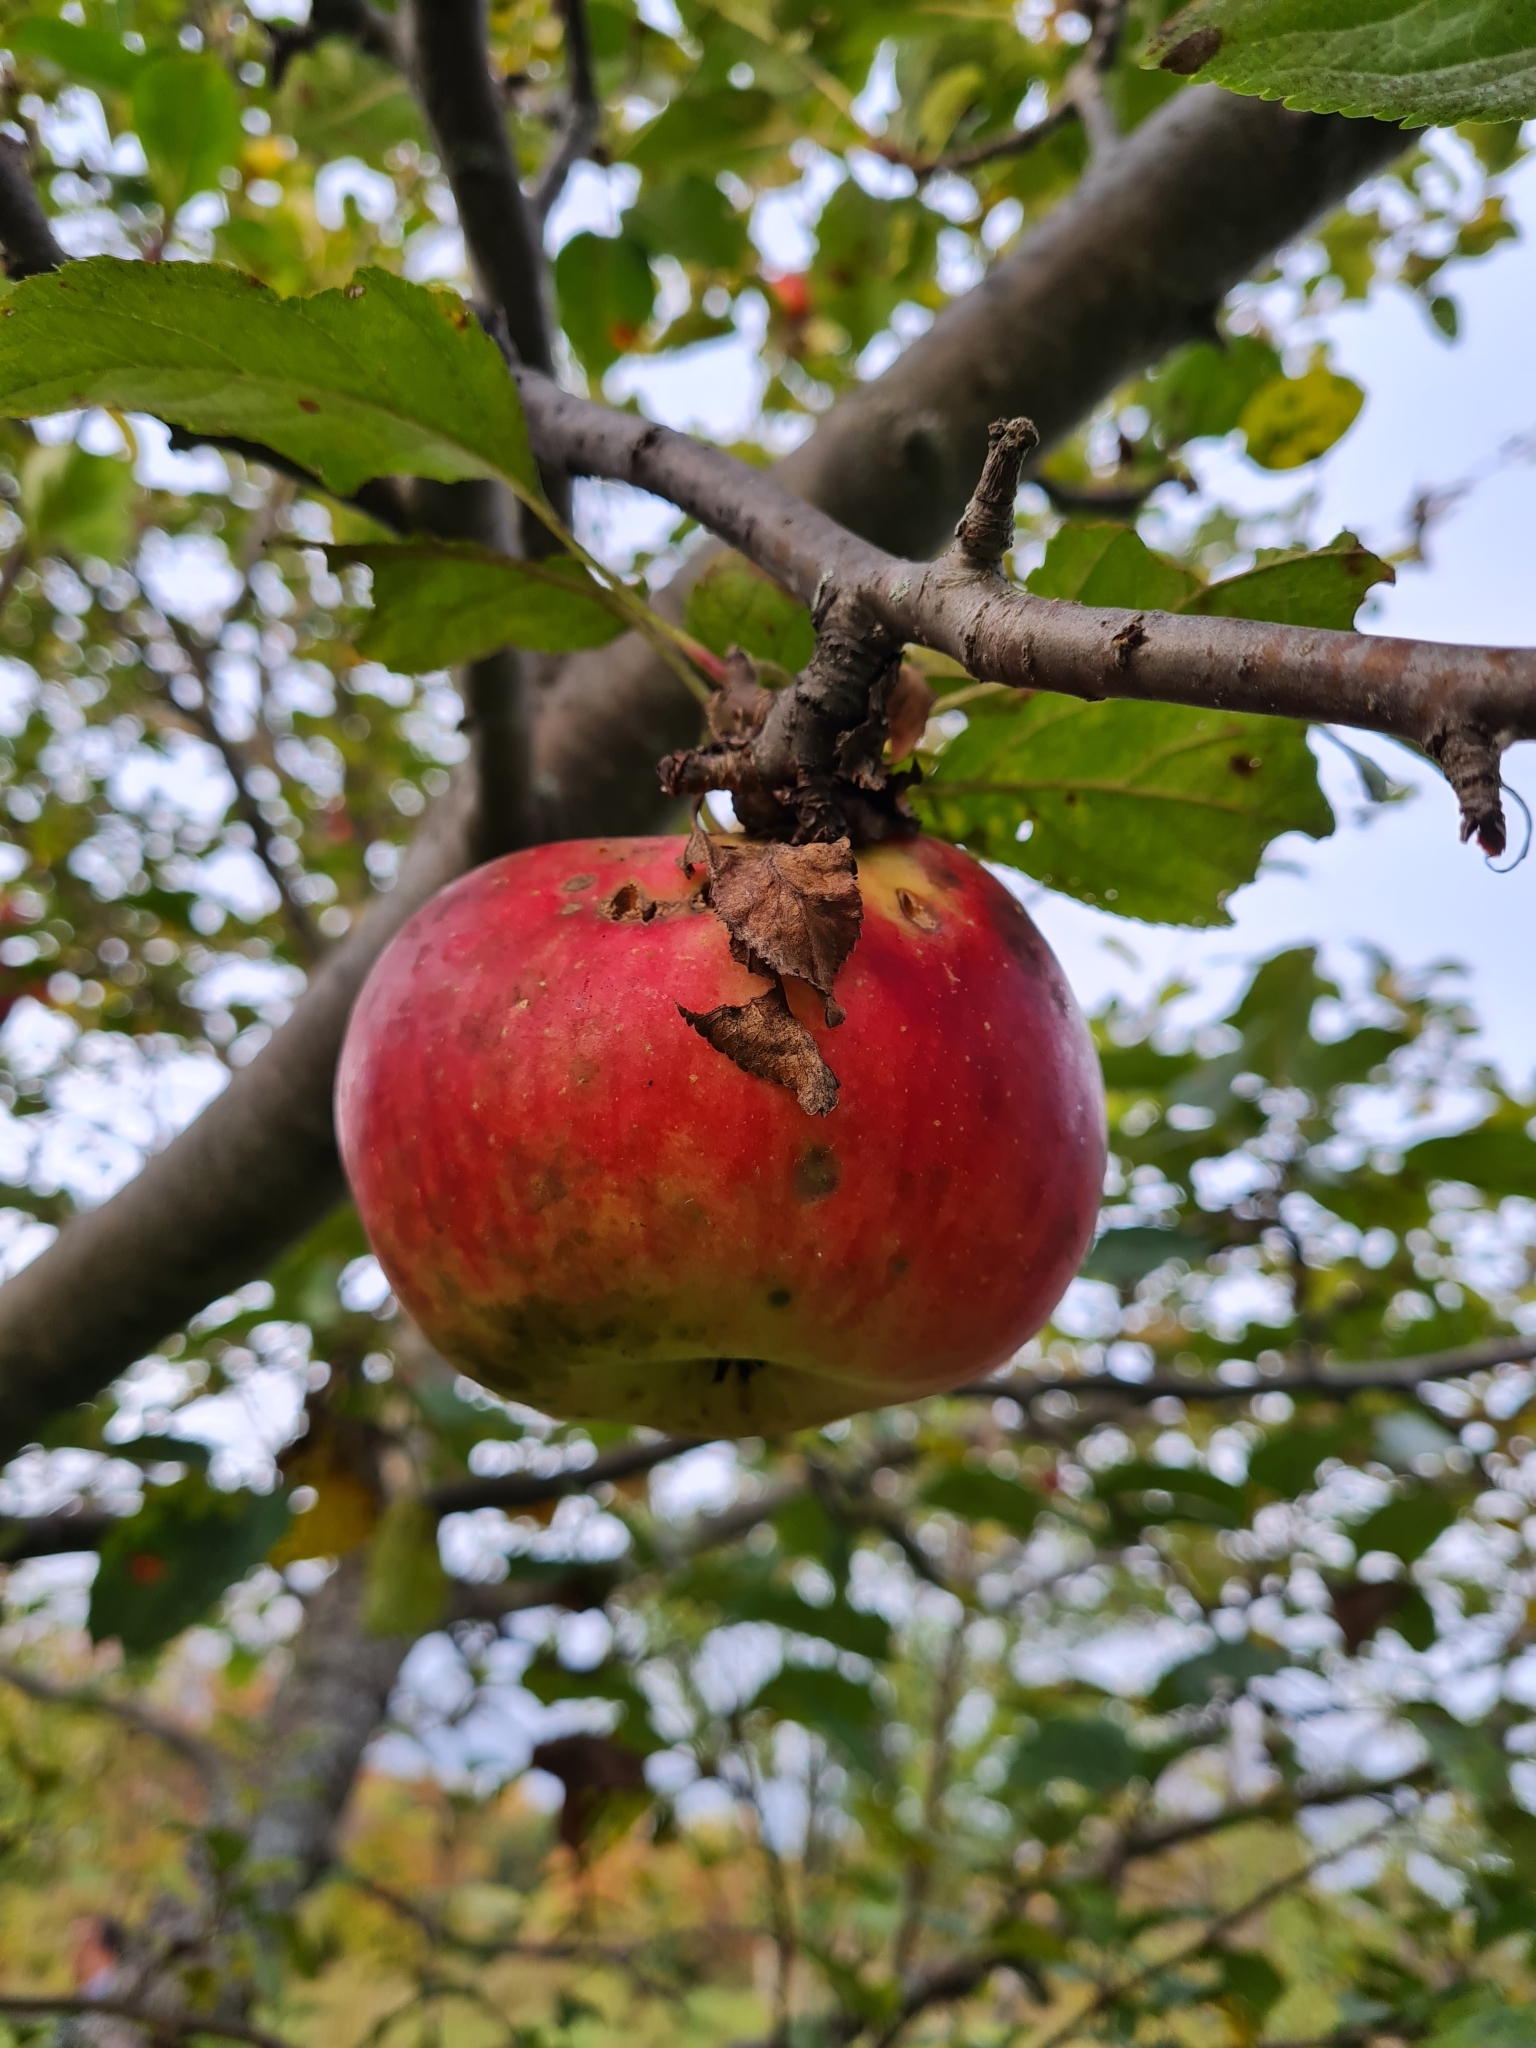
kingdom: Plantae
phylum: Tracheophyta
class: Magnoliopsida
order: Rosales
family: Rosaceae
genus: Malus
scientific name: Malus domestica
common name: Apple
